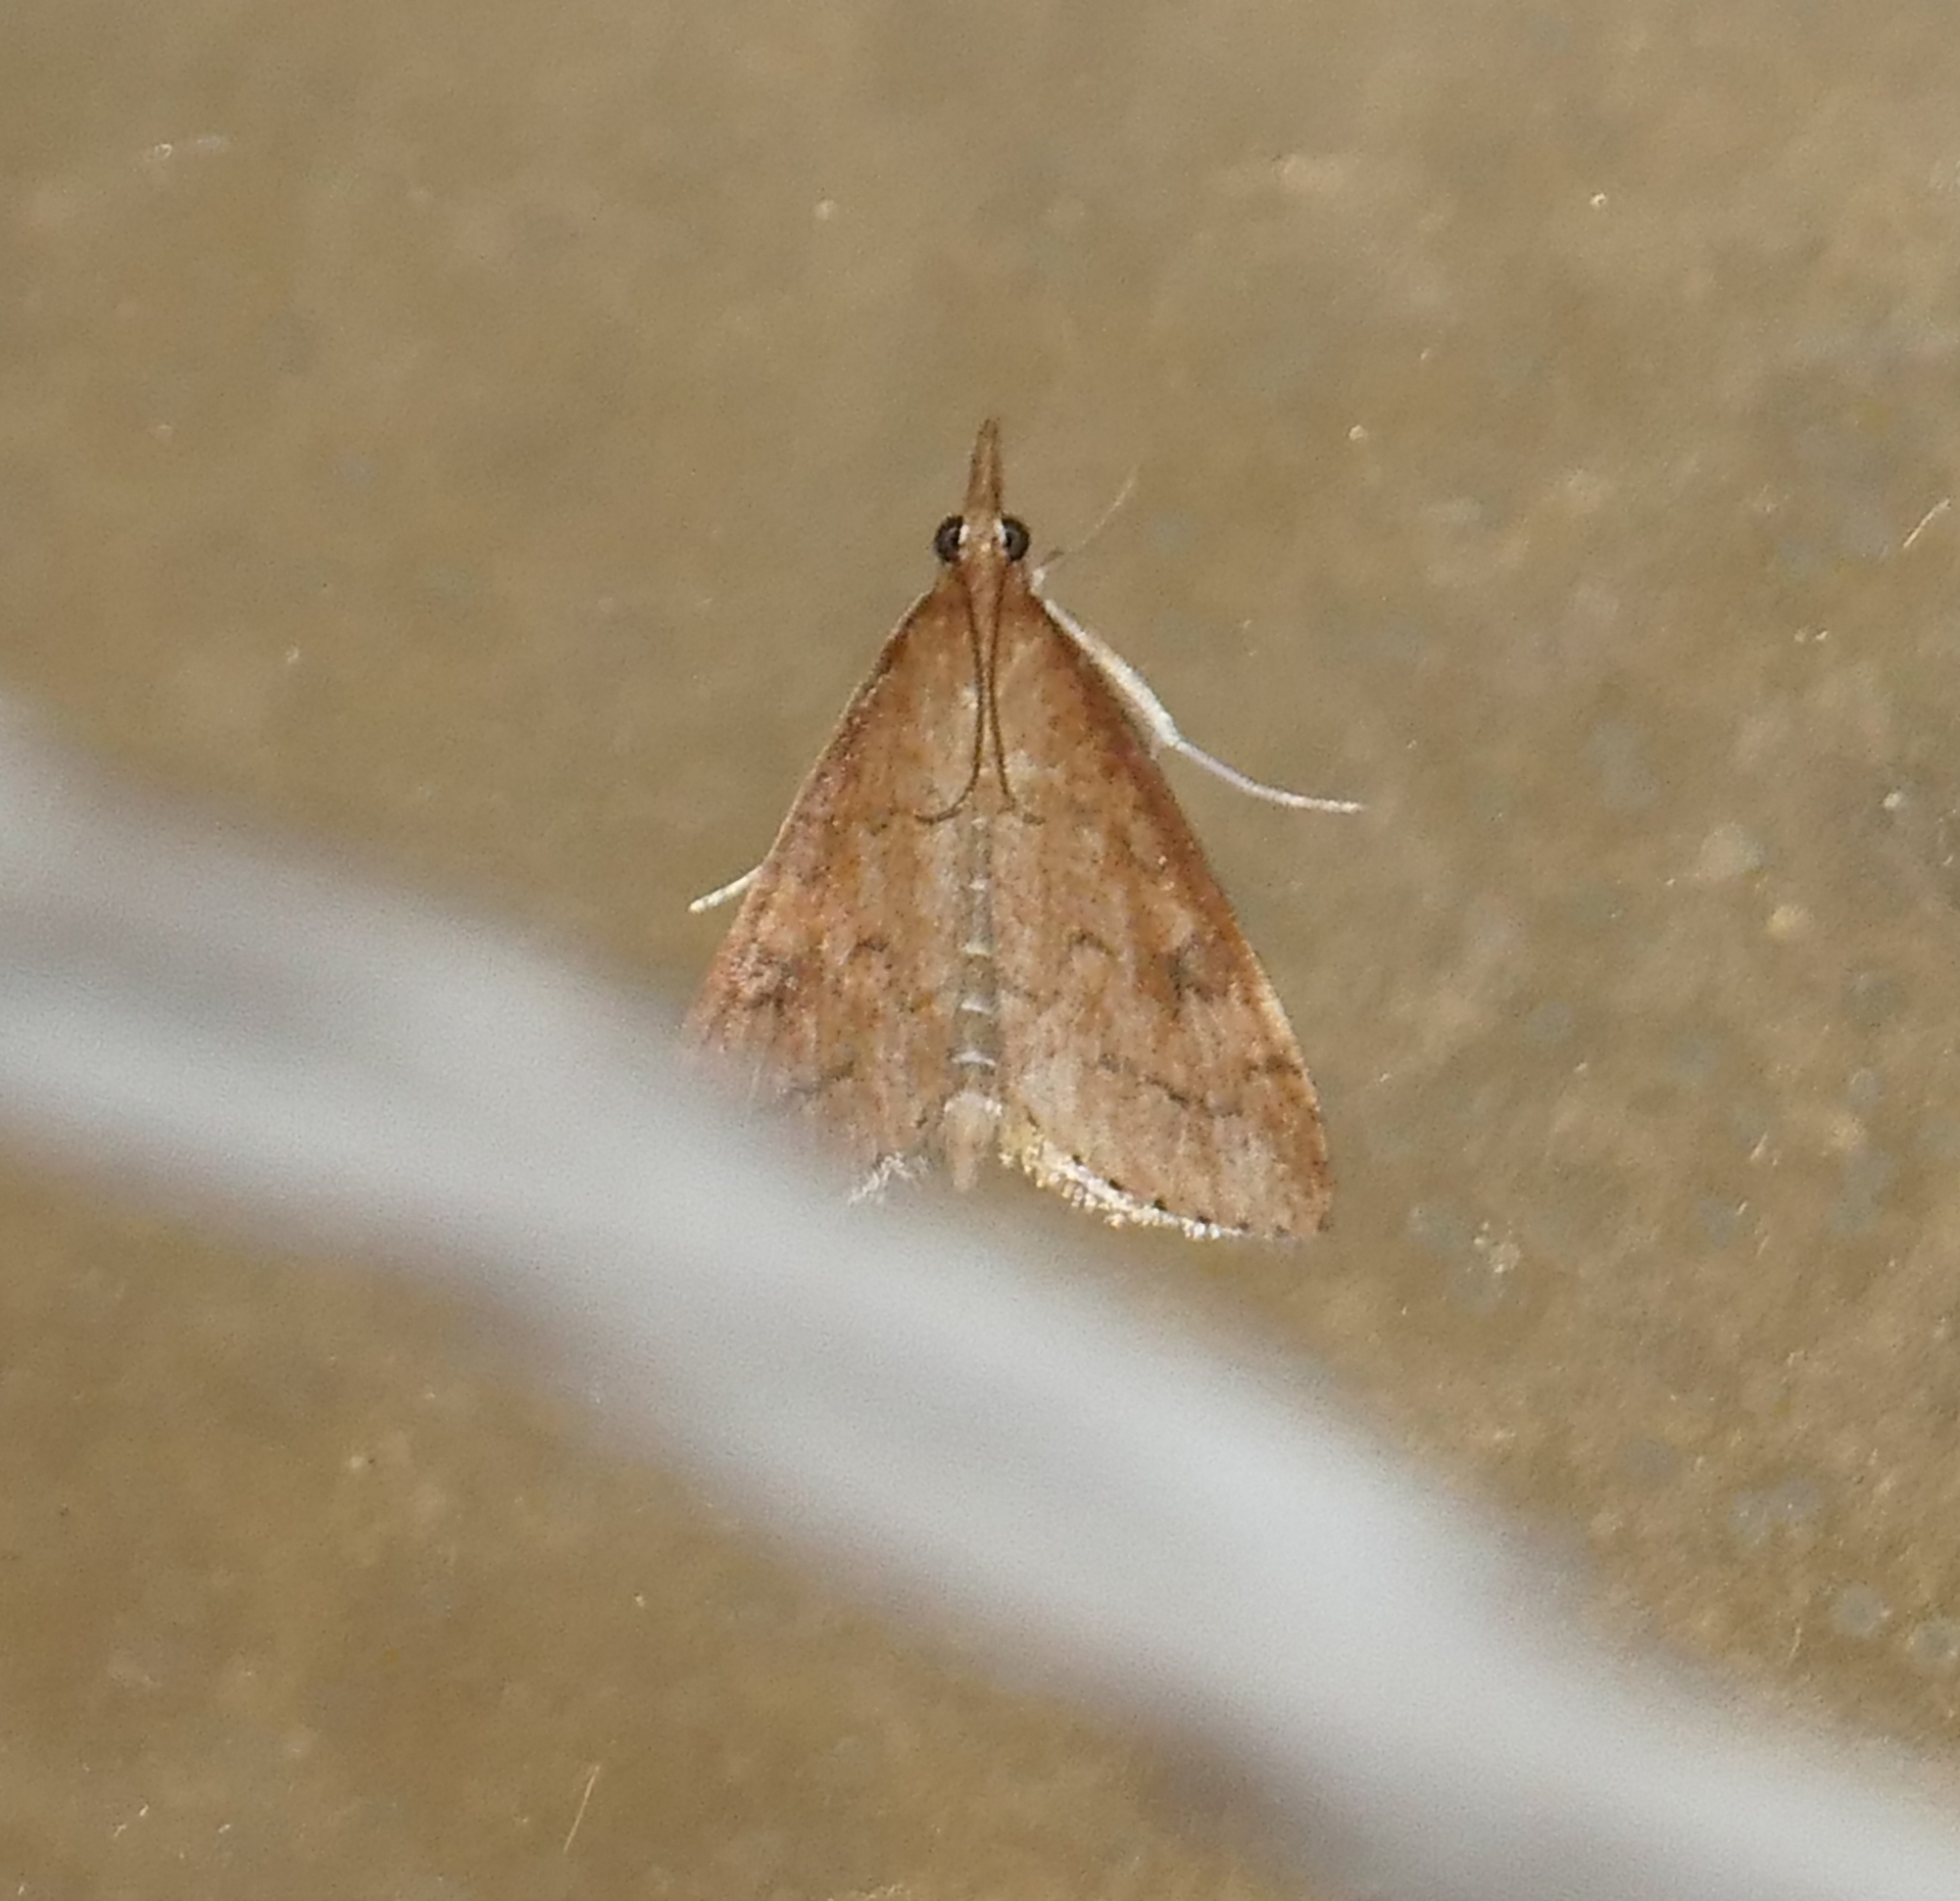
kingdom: Animalia
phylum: Arthropoda
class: Insecta
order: Lepidoptera
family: Crambidae
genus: Udea
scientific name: Udea rubigalis
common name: Celery leaftier moth
